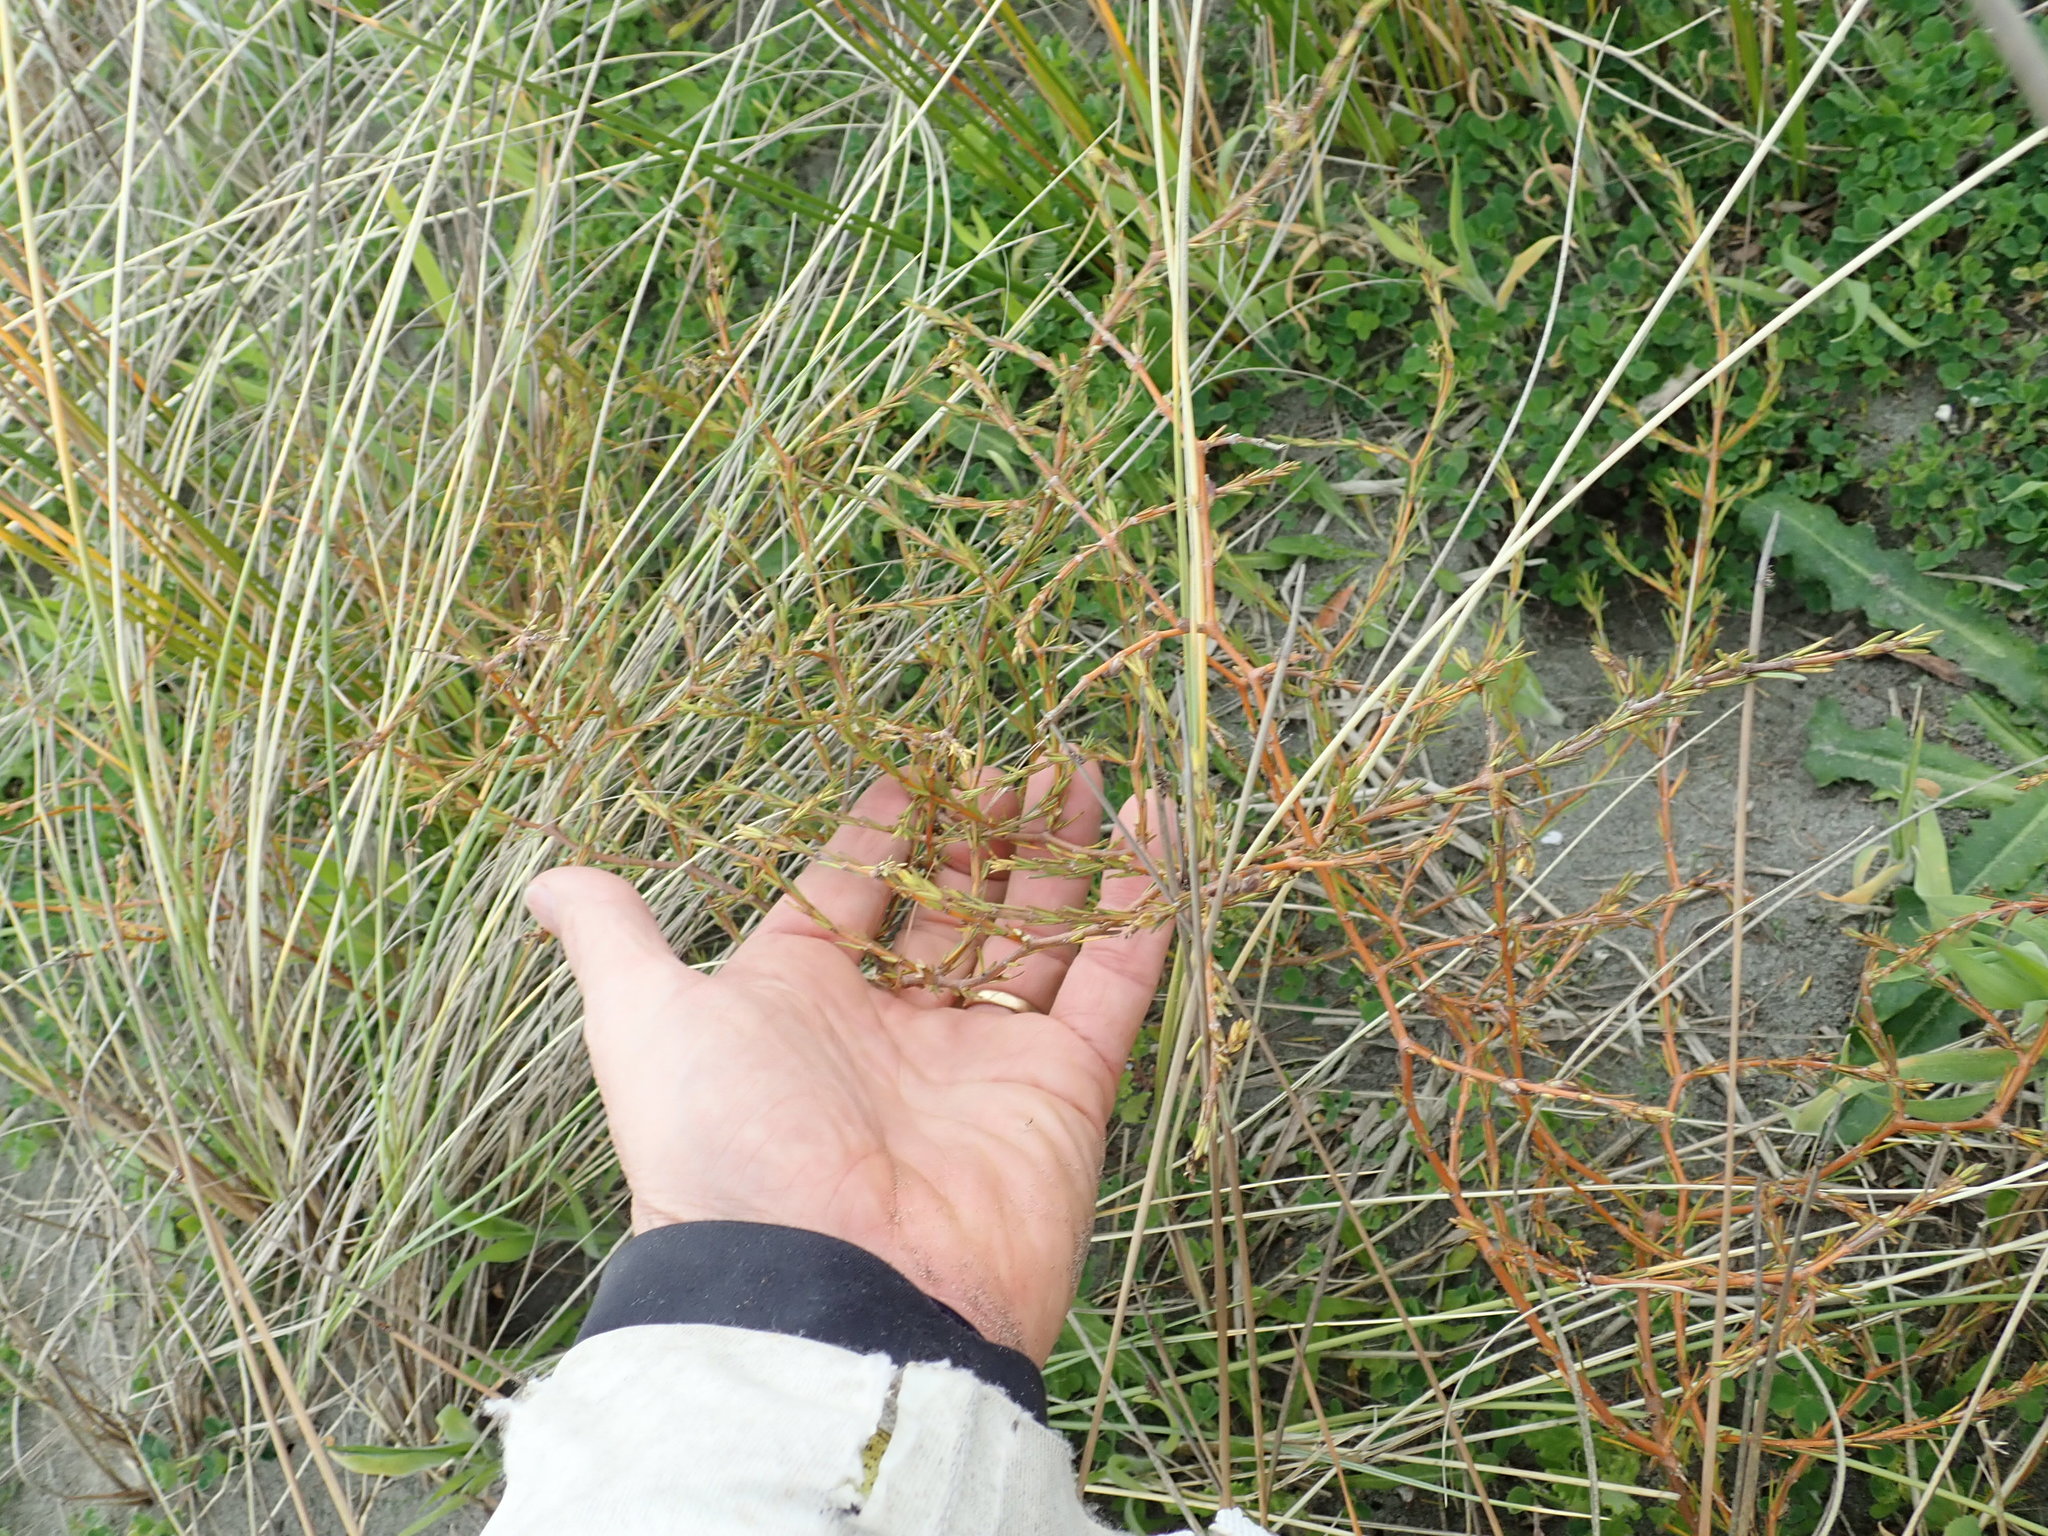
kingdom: Plantae
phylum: Tracheophyta
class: Magnoliopsida
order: Gentianales
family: Rubiaceae
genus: Coprosma
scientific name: Coprosma acerosa
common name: Sand coprosma
